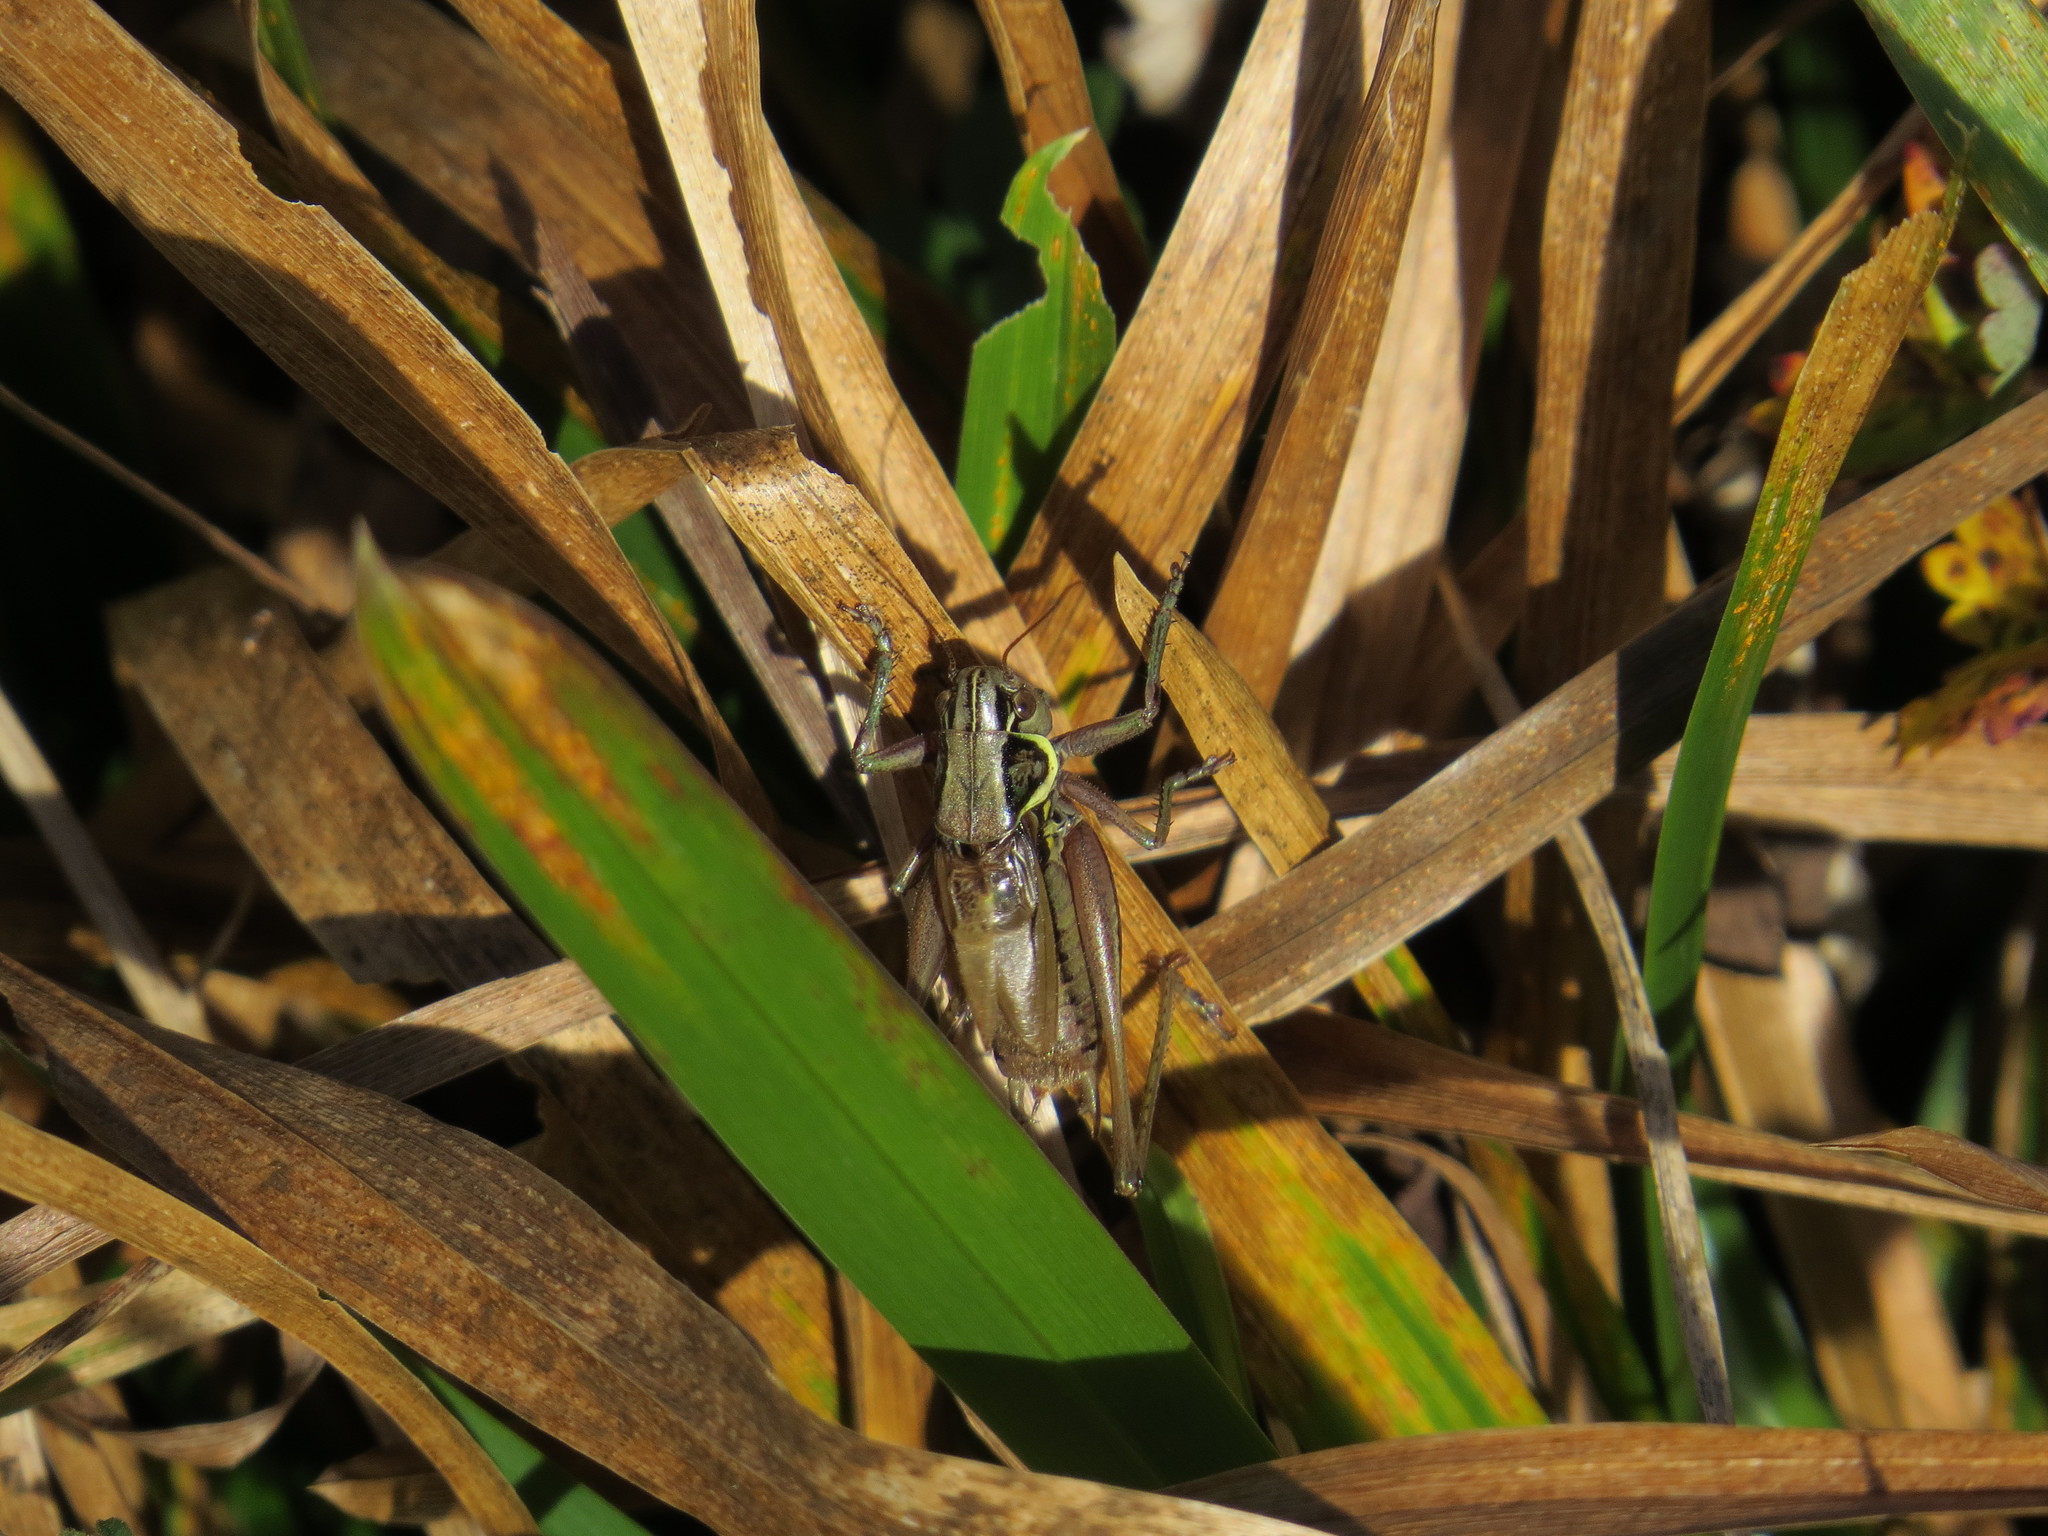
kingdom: Animalia
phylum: Arthropoda
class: Insecta
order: Orthoptera
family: Tettigoniidae
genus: Roeseliana
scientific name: Roeseliana roeselii
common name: Roesel's bush cricket
